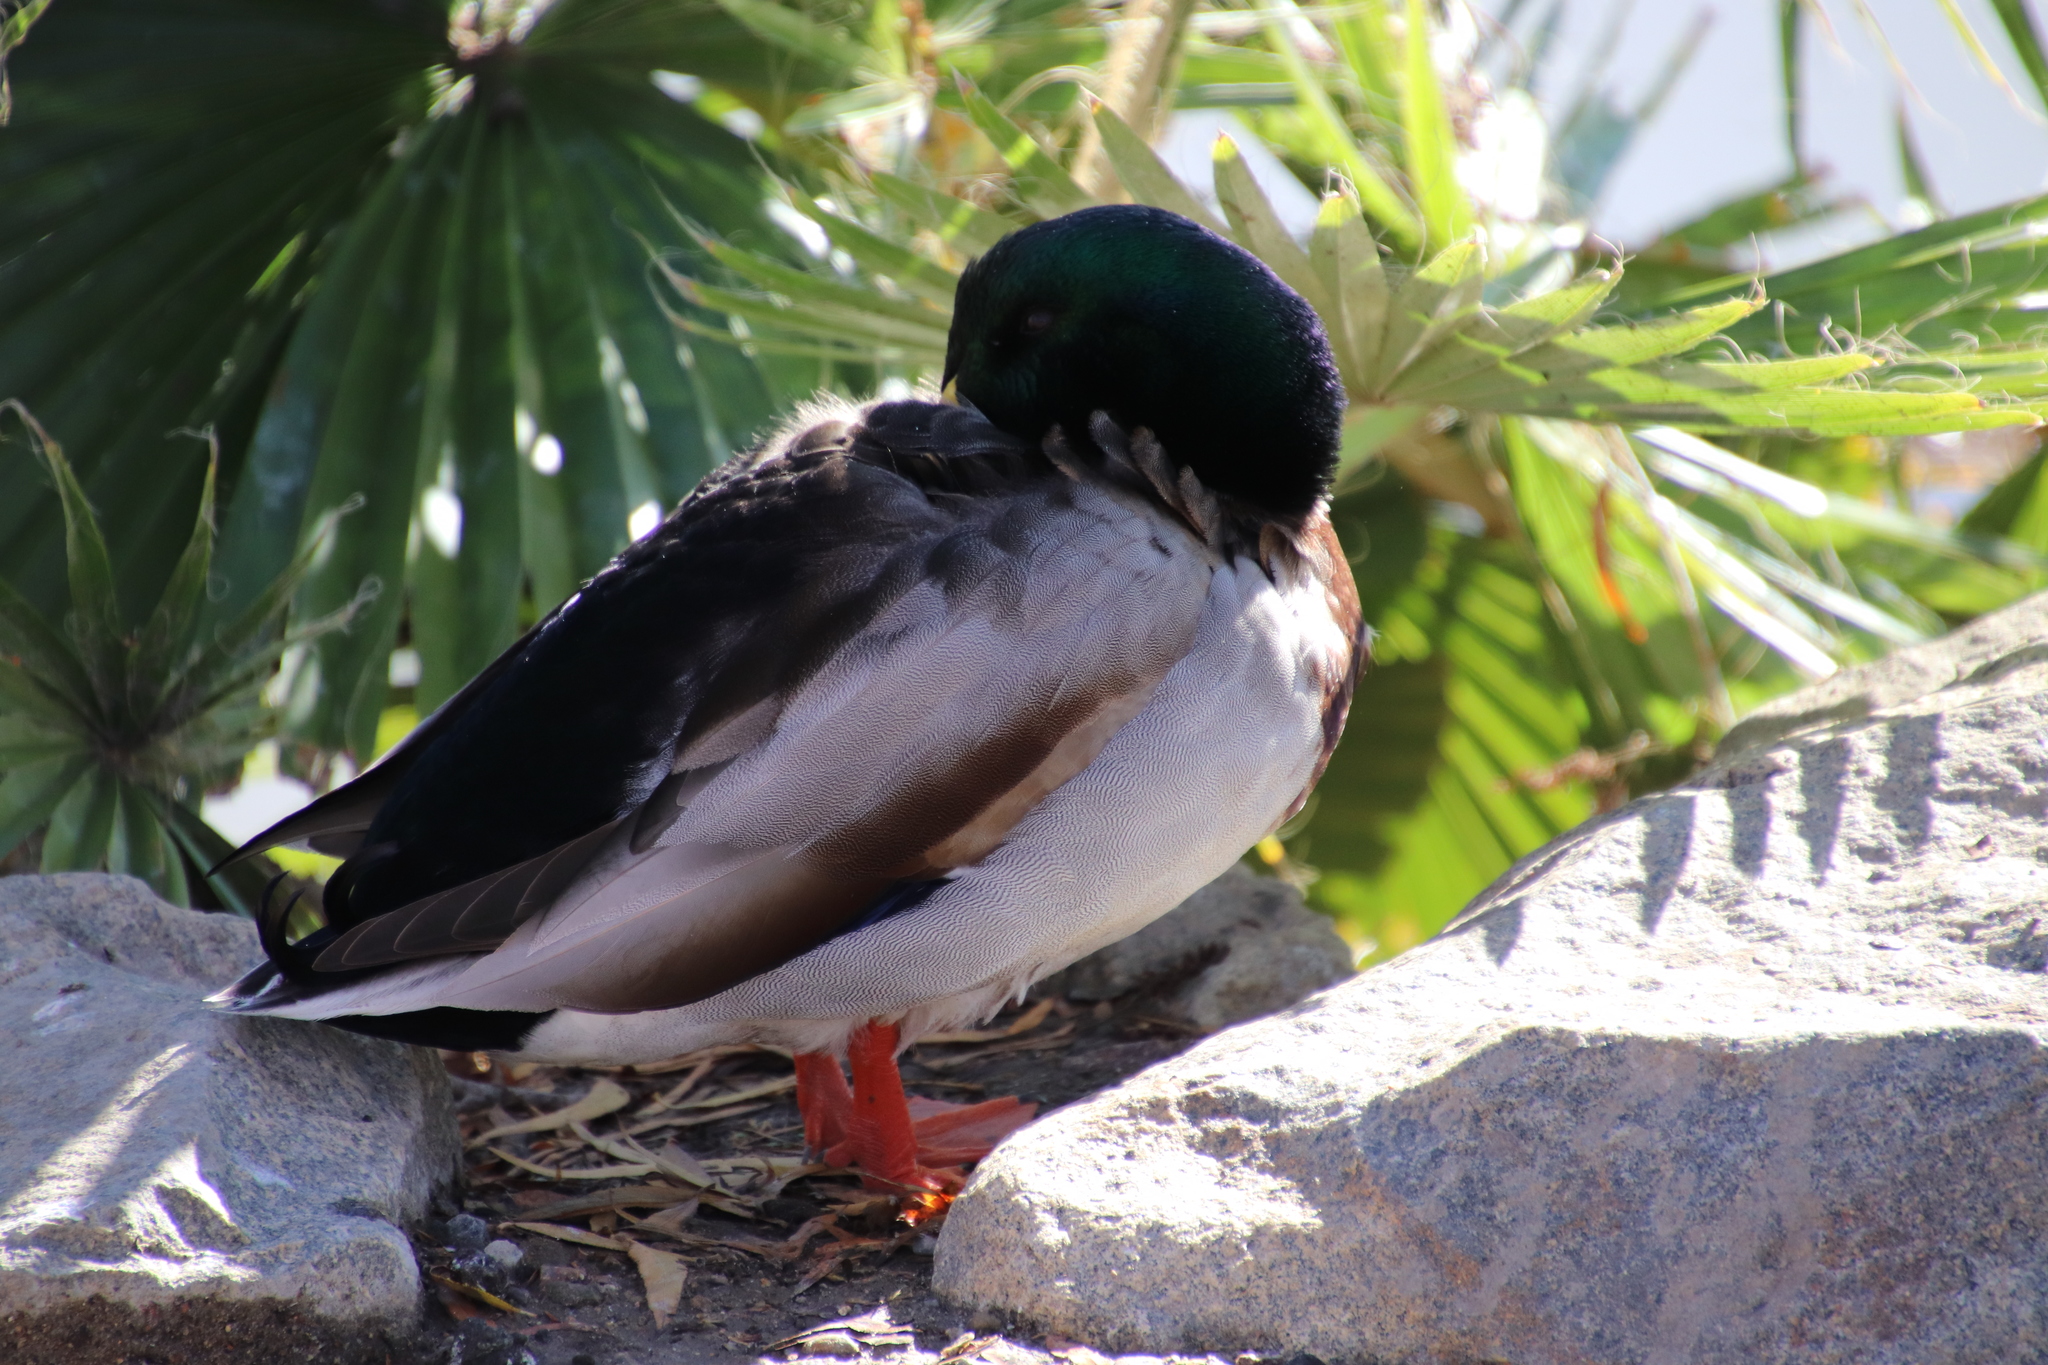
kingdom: Animalia
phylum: Chordata
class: Aves
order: Anseriformes
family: Anatidae
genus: Anas
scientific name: Anas platyrhynchos
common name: Mallard
